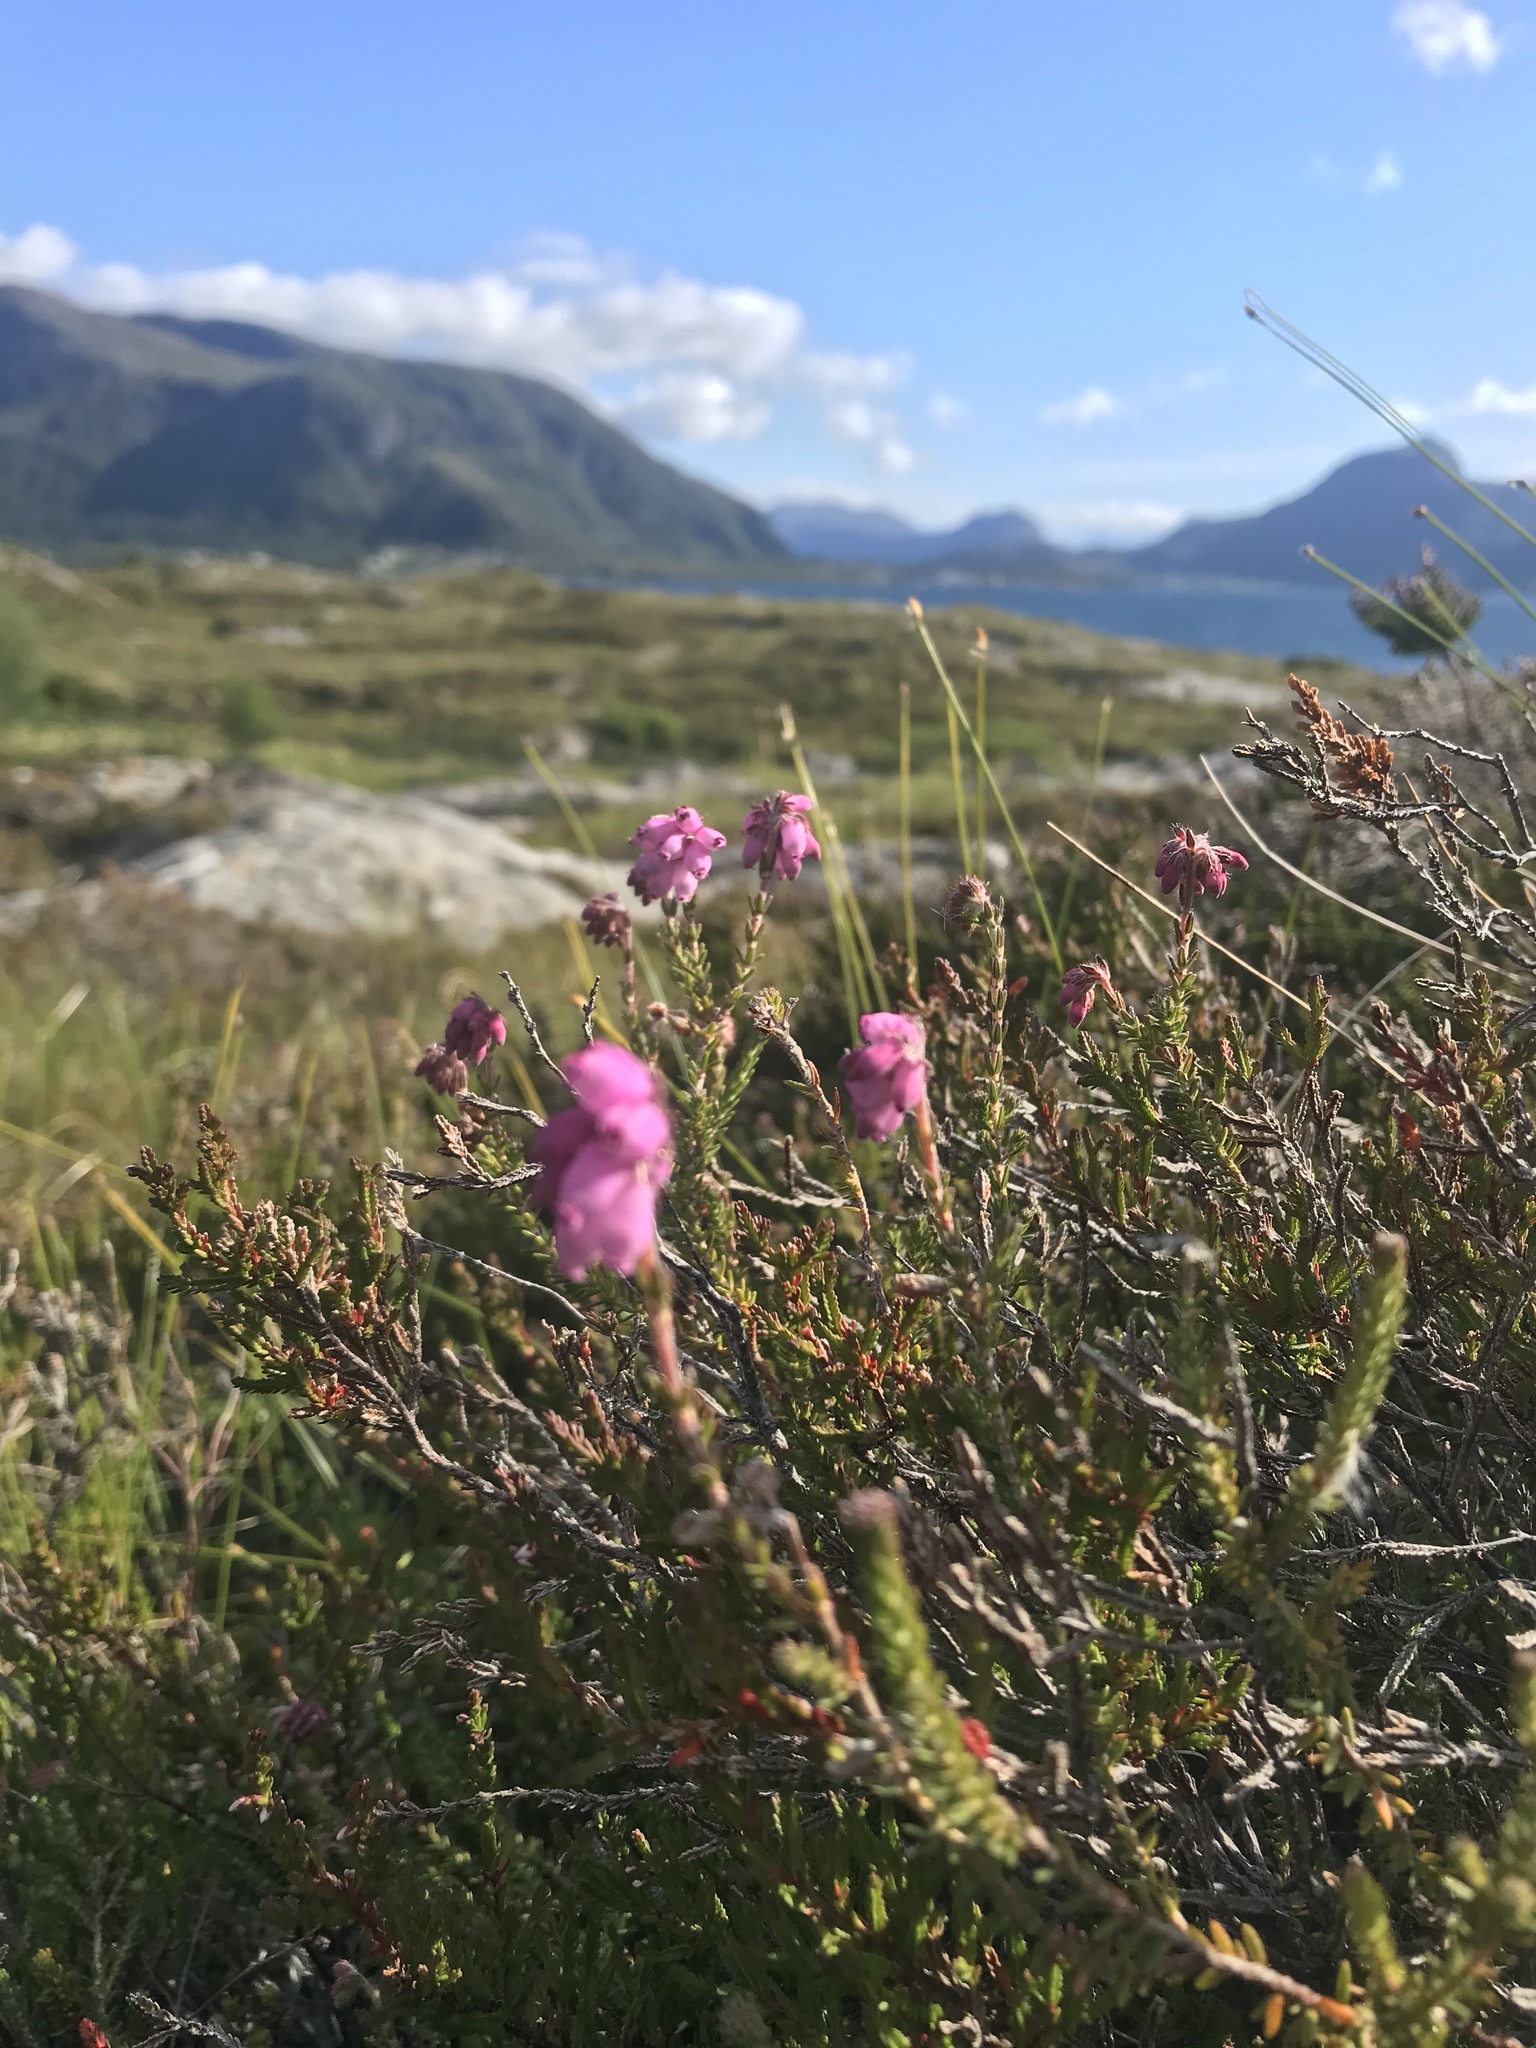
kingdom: Plantae
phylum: Tracheophyta
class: Magnoliopsida
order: Ericales
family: Ericaceae
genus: Erica
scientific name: Erica tetralix
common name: Cross-leaved heath
